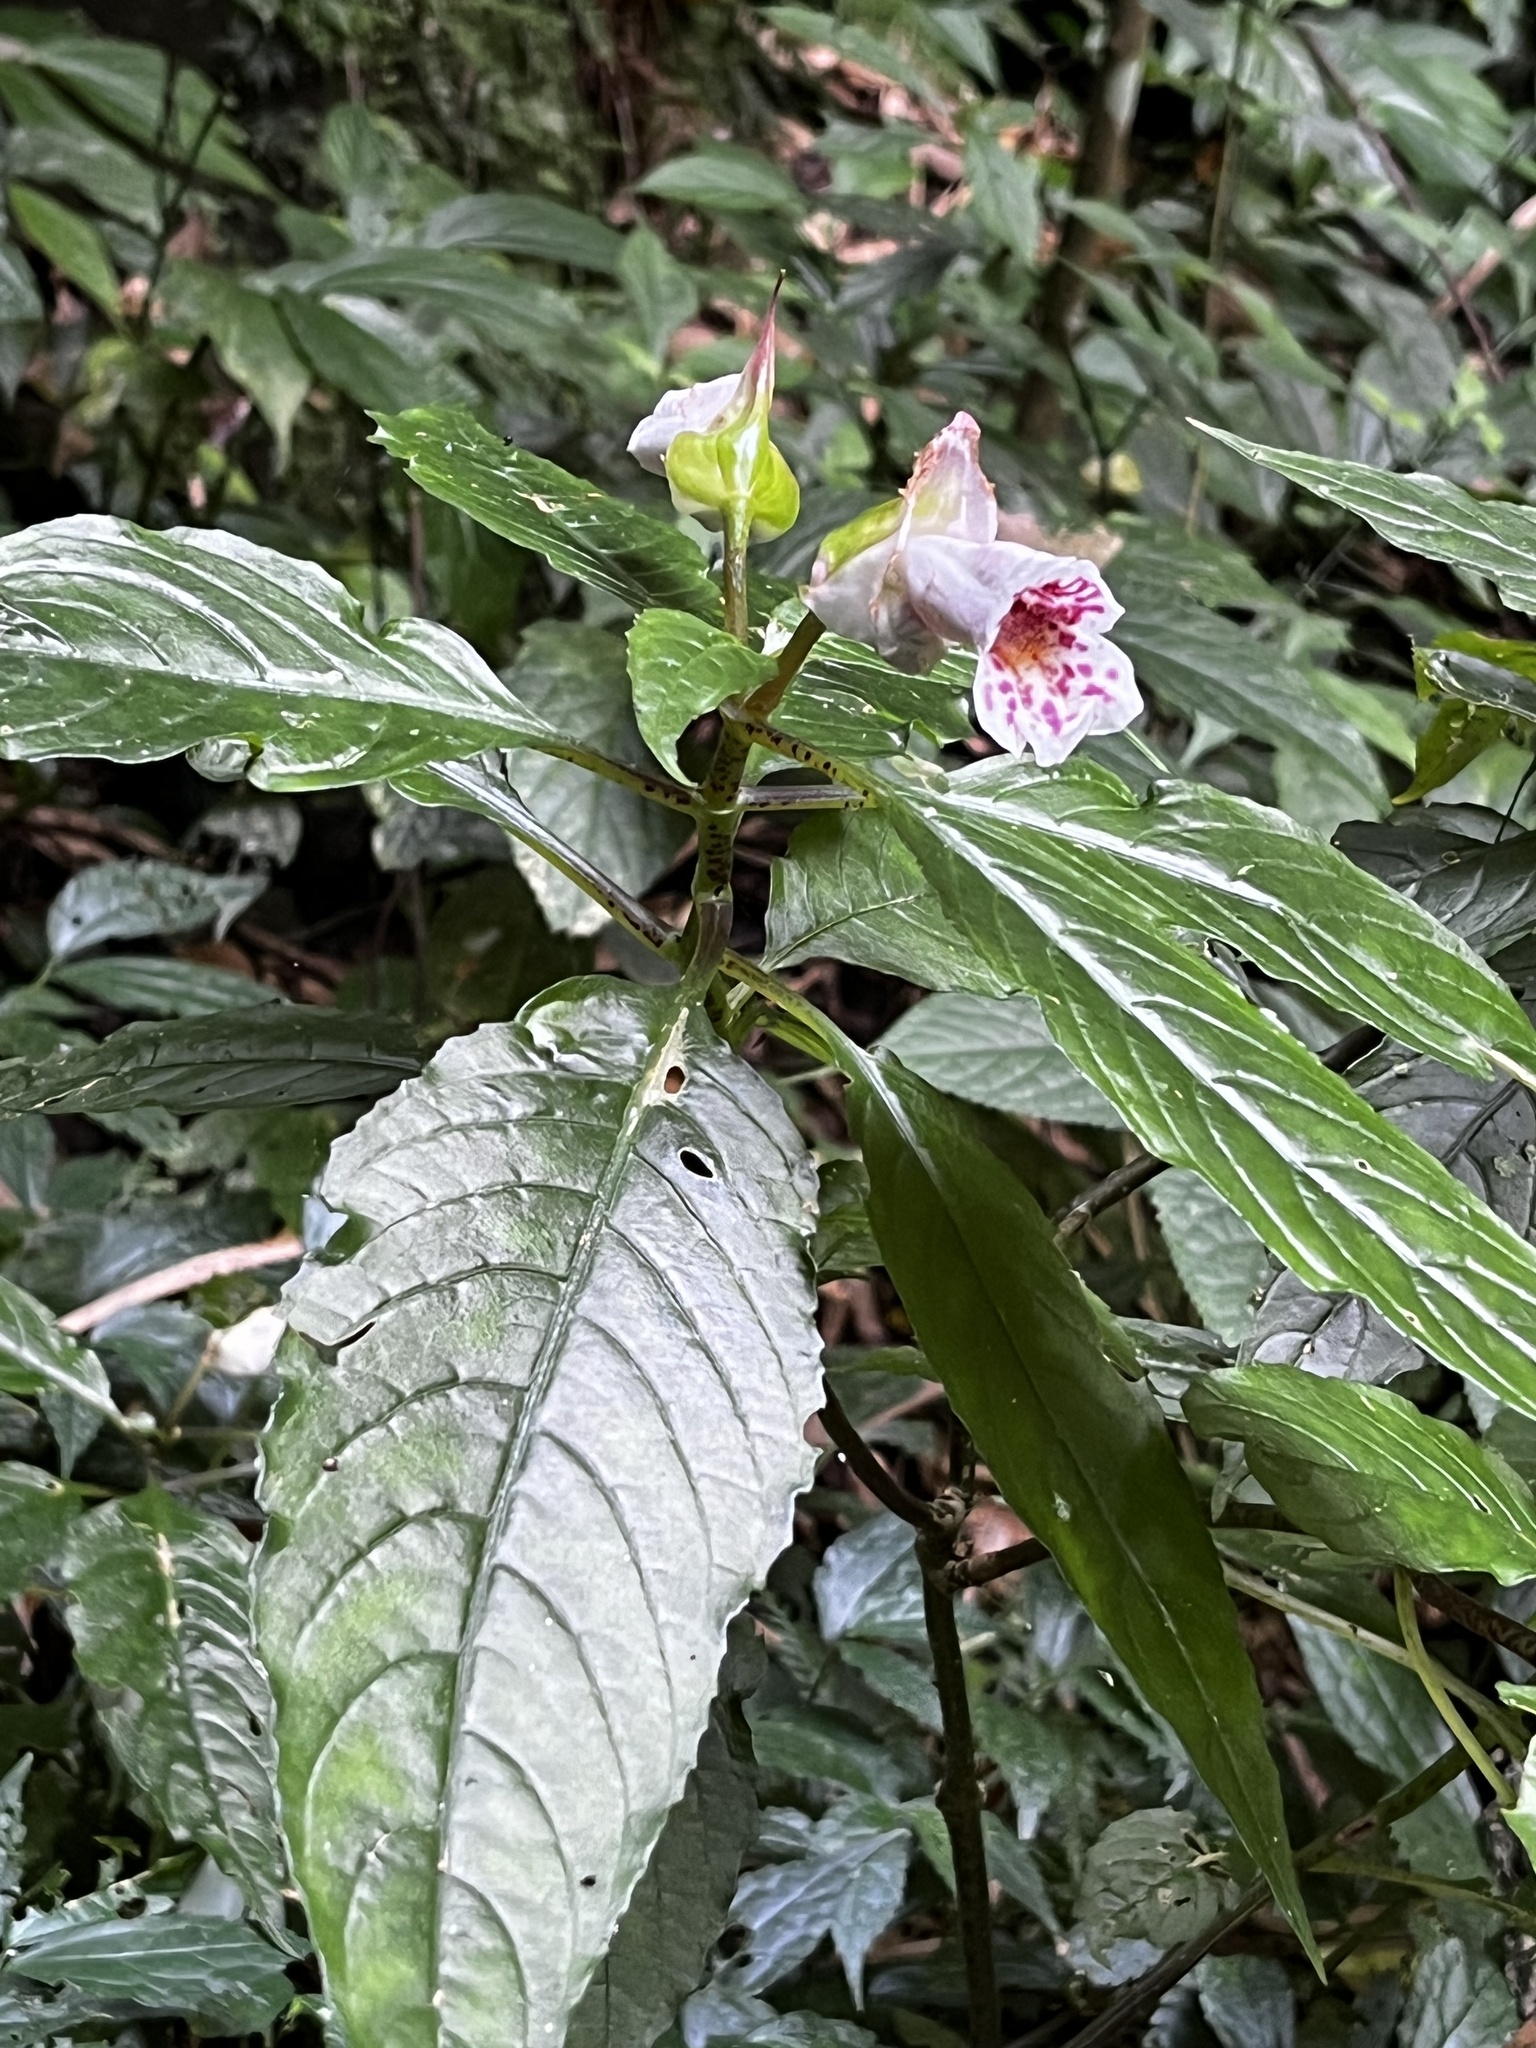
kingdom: Plantae
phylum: Tracheophyta
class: Magnoliopsida
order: Lamiales
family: Gesneriaceae
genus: Hemiboea
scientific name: Hemiboea bicornuta
